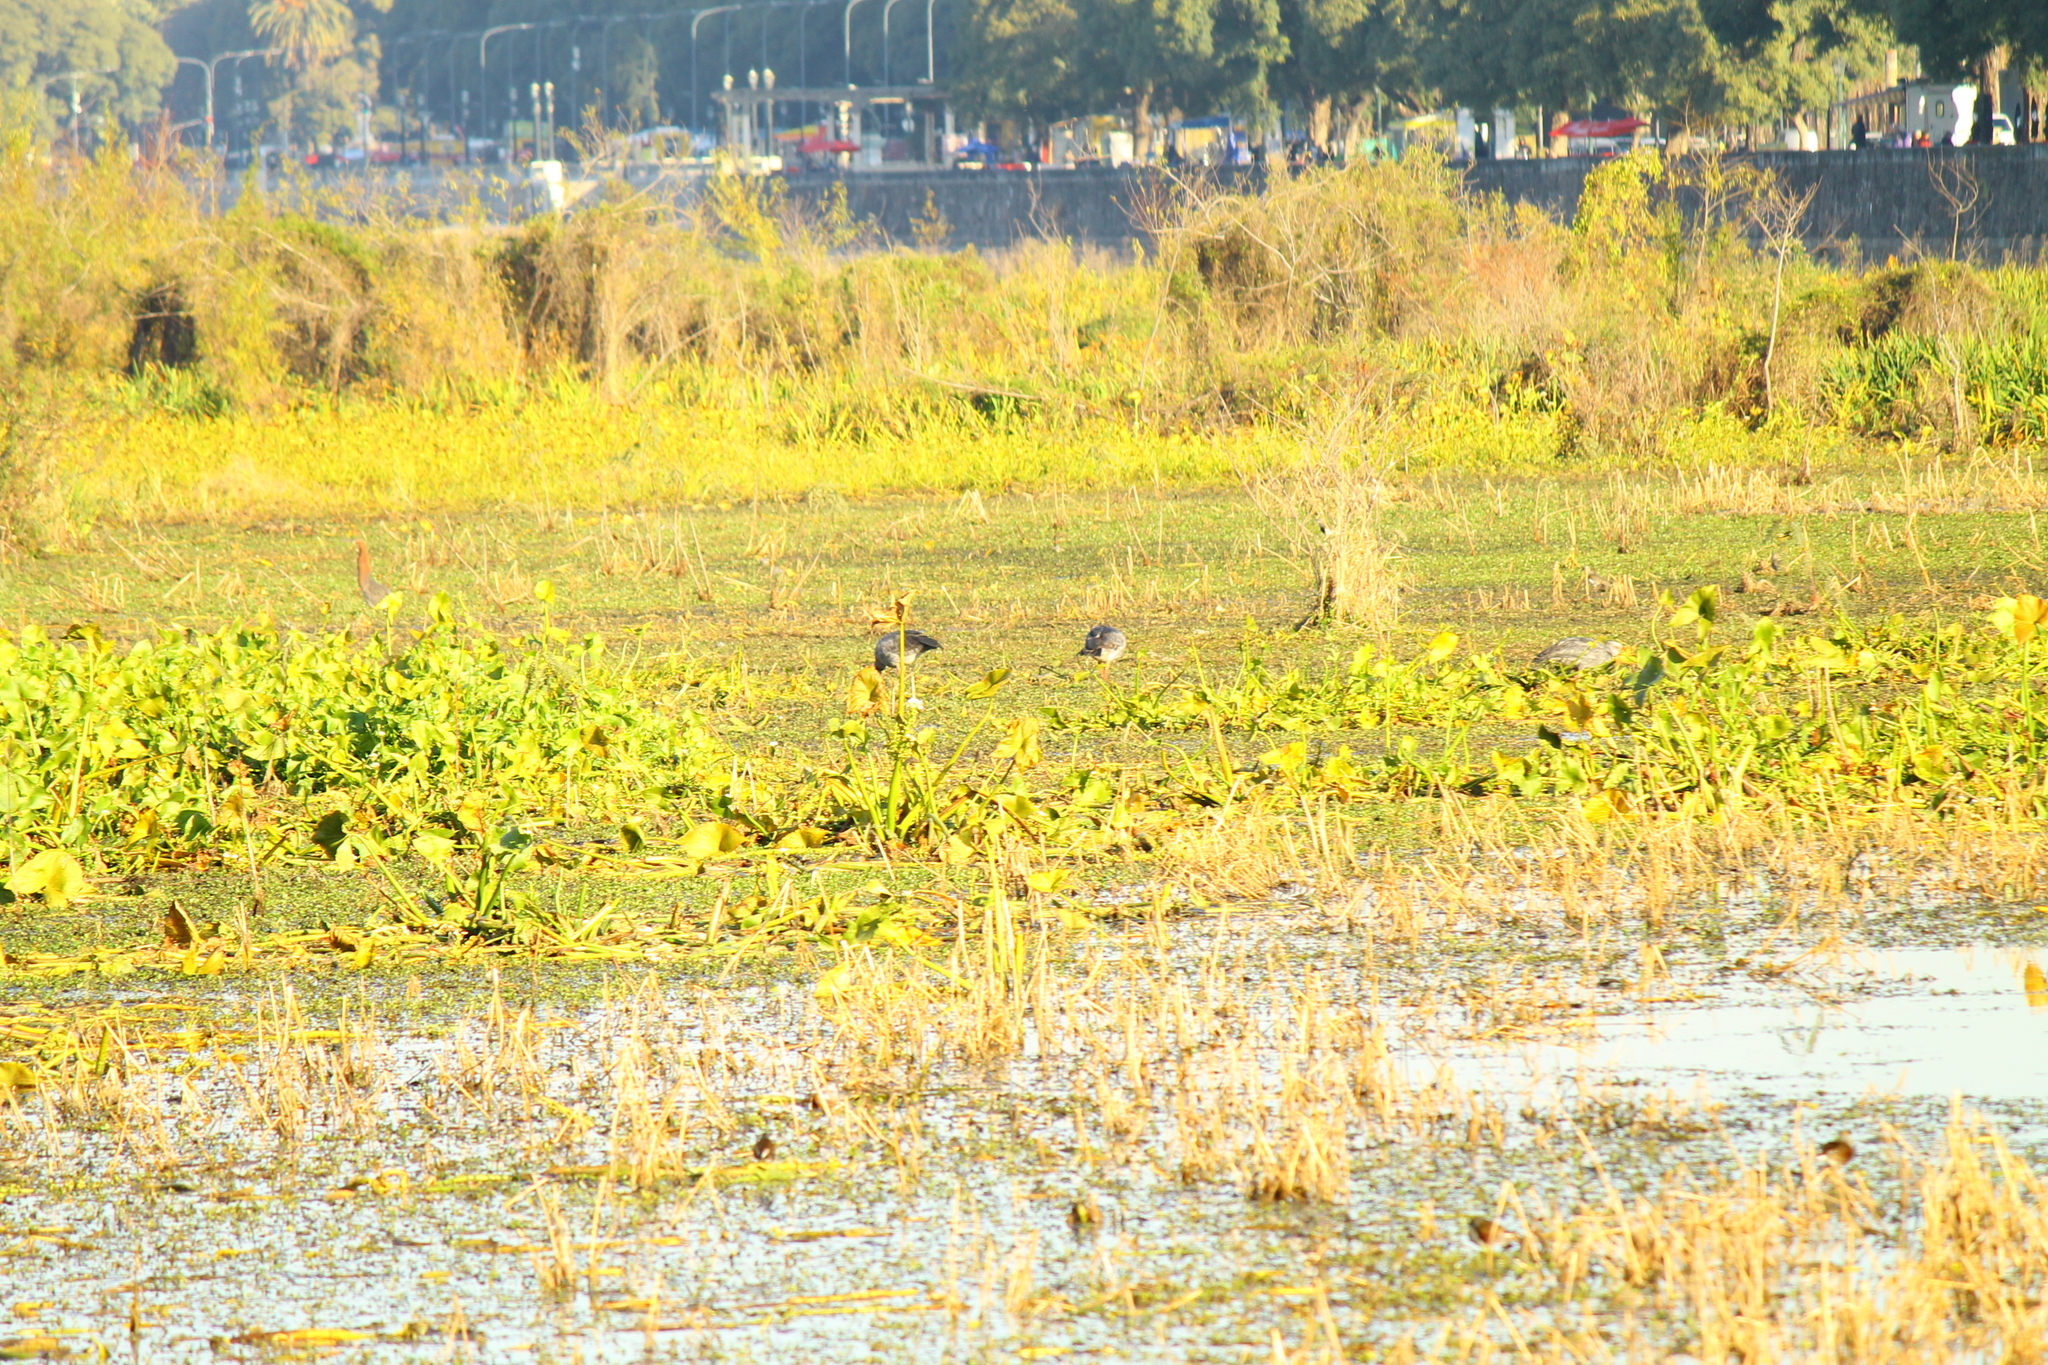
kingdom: Animalia
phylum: Chordata
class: Aves
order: Anseriformes
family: Anhimidae
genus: Chauna
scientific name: Chauna torquata
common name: Southern screamer
